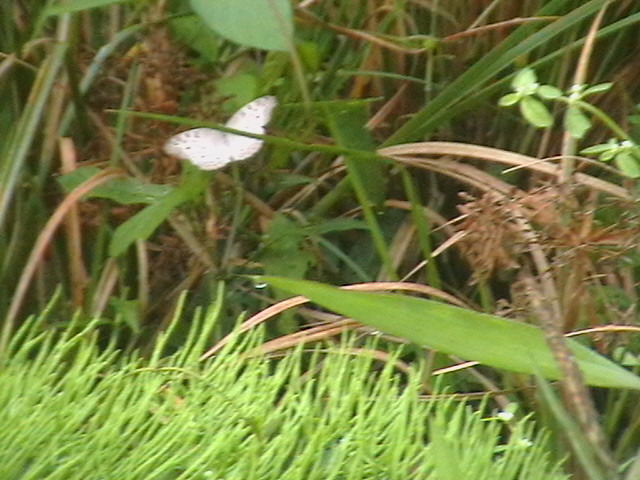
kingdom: Animalia
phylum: Arthropoda
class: Insecta
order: Lepidoptera
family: Nymphalidae
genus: Junonia
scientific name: Junonia atlites
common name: Grey pansy
